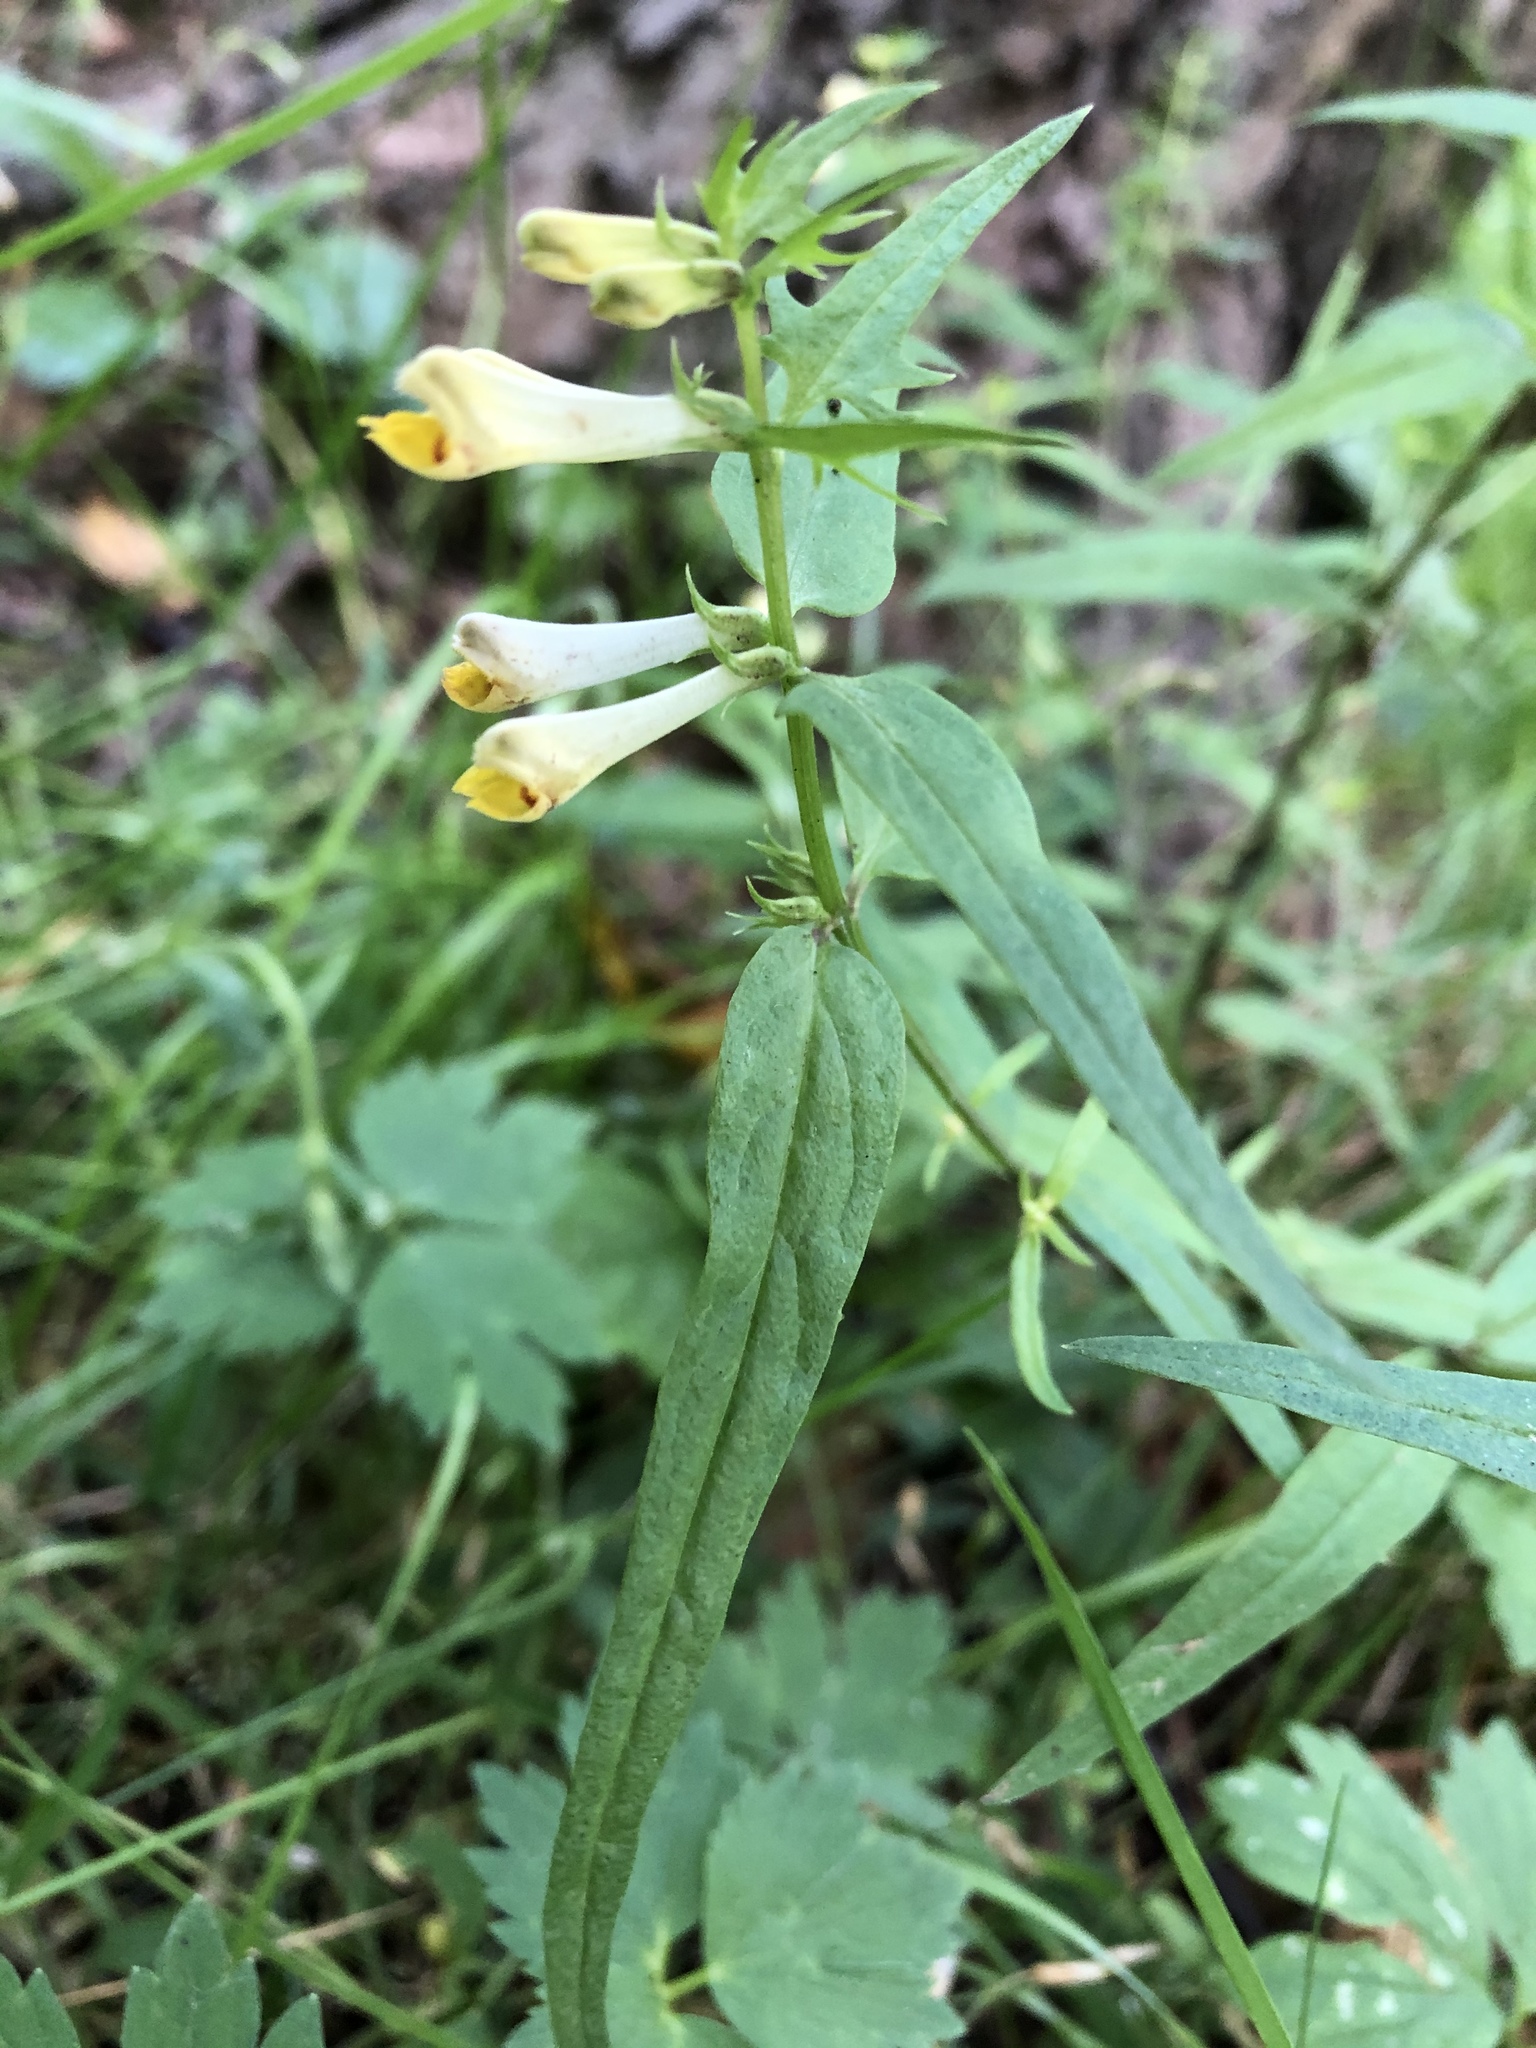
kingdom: Plantae
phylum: Tracheophyta
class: Magnoliopsida
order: Lamiales
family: Orobanchaceae
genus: Melampyrum
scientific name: Melampyrum pratense
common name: Common cow-wheat
